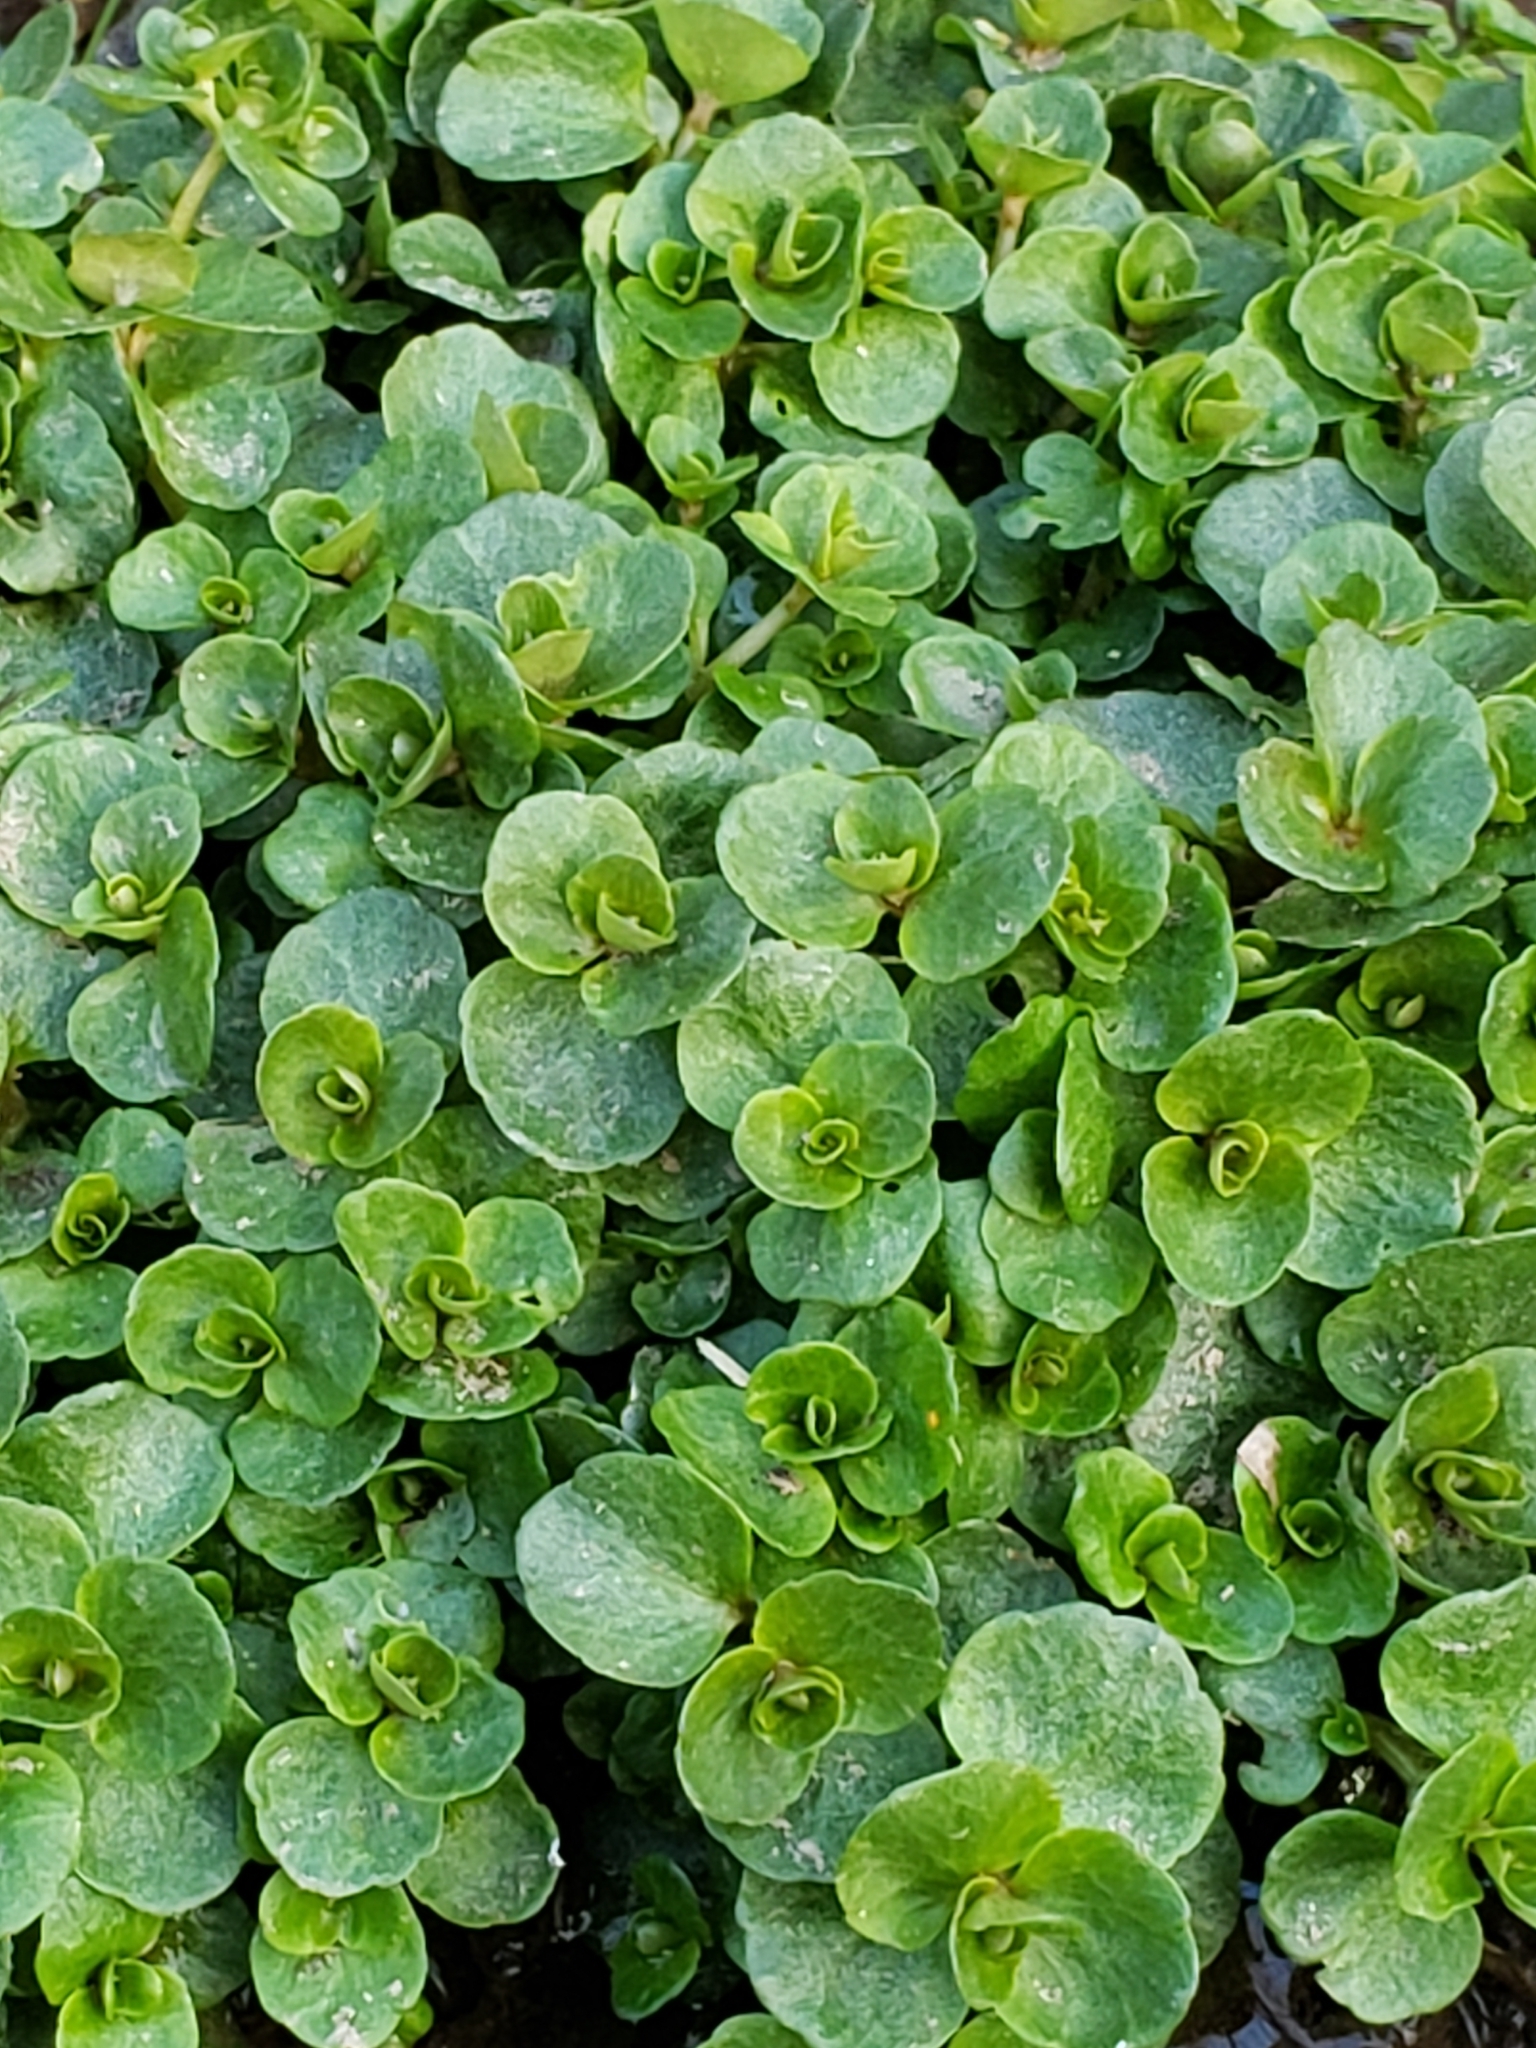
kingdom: Plantae
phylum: Tracheophyta
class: Magnoliopsida
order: Saxifragales
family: Saxifragaceae
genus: Chrysosplenium
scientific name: Chrysosplenium americanum
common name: American golden-saxifrage
